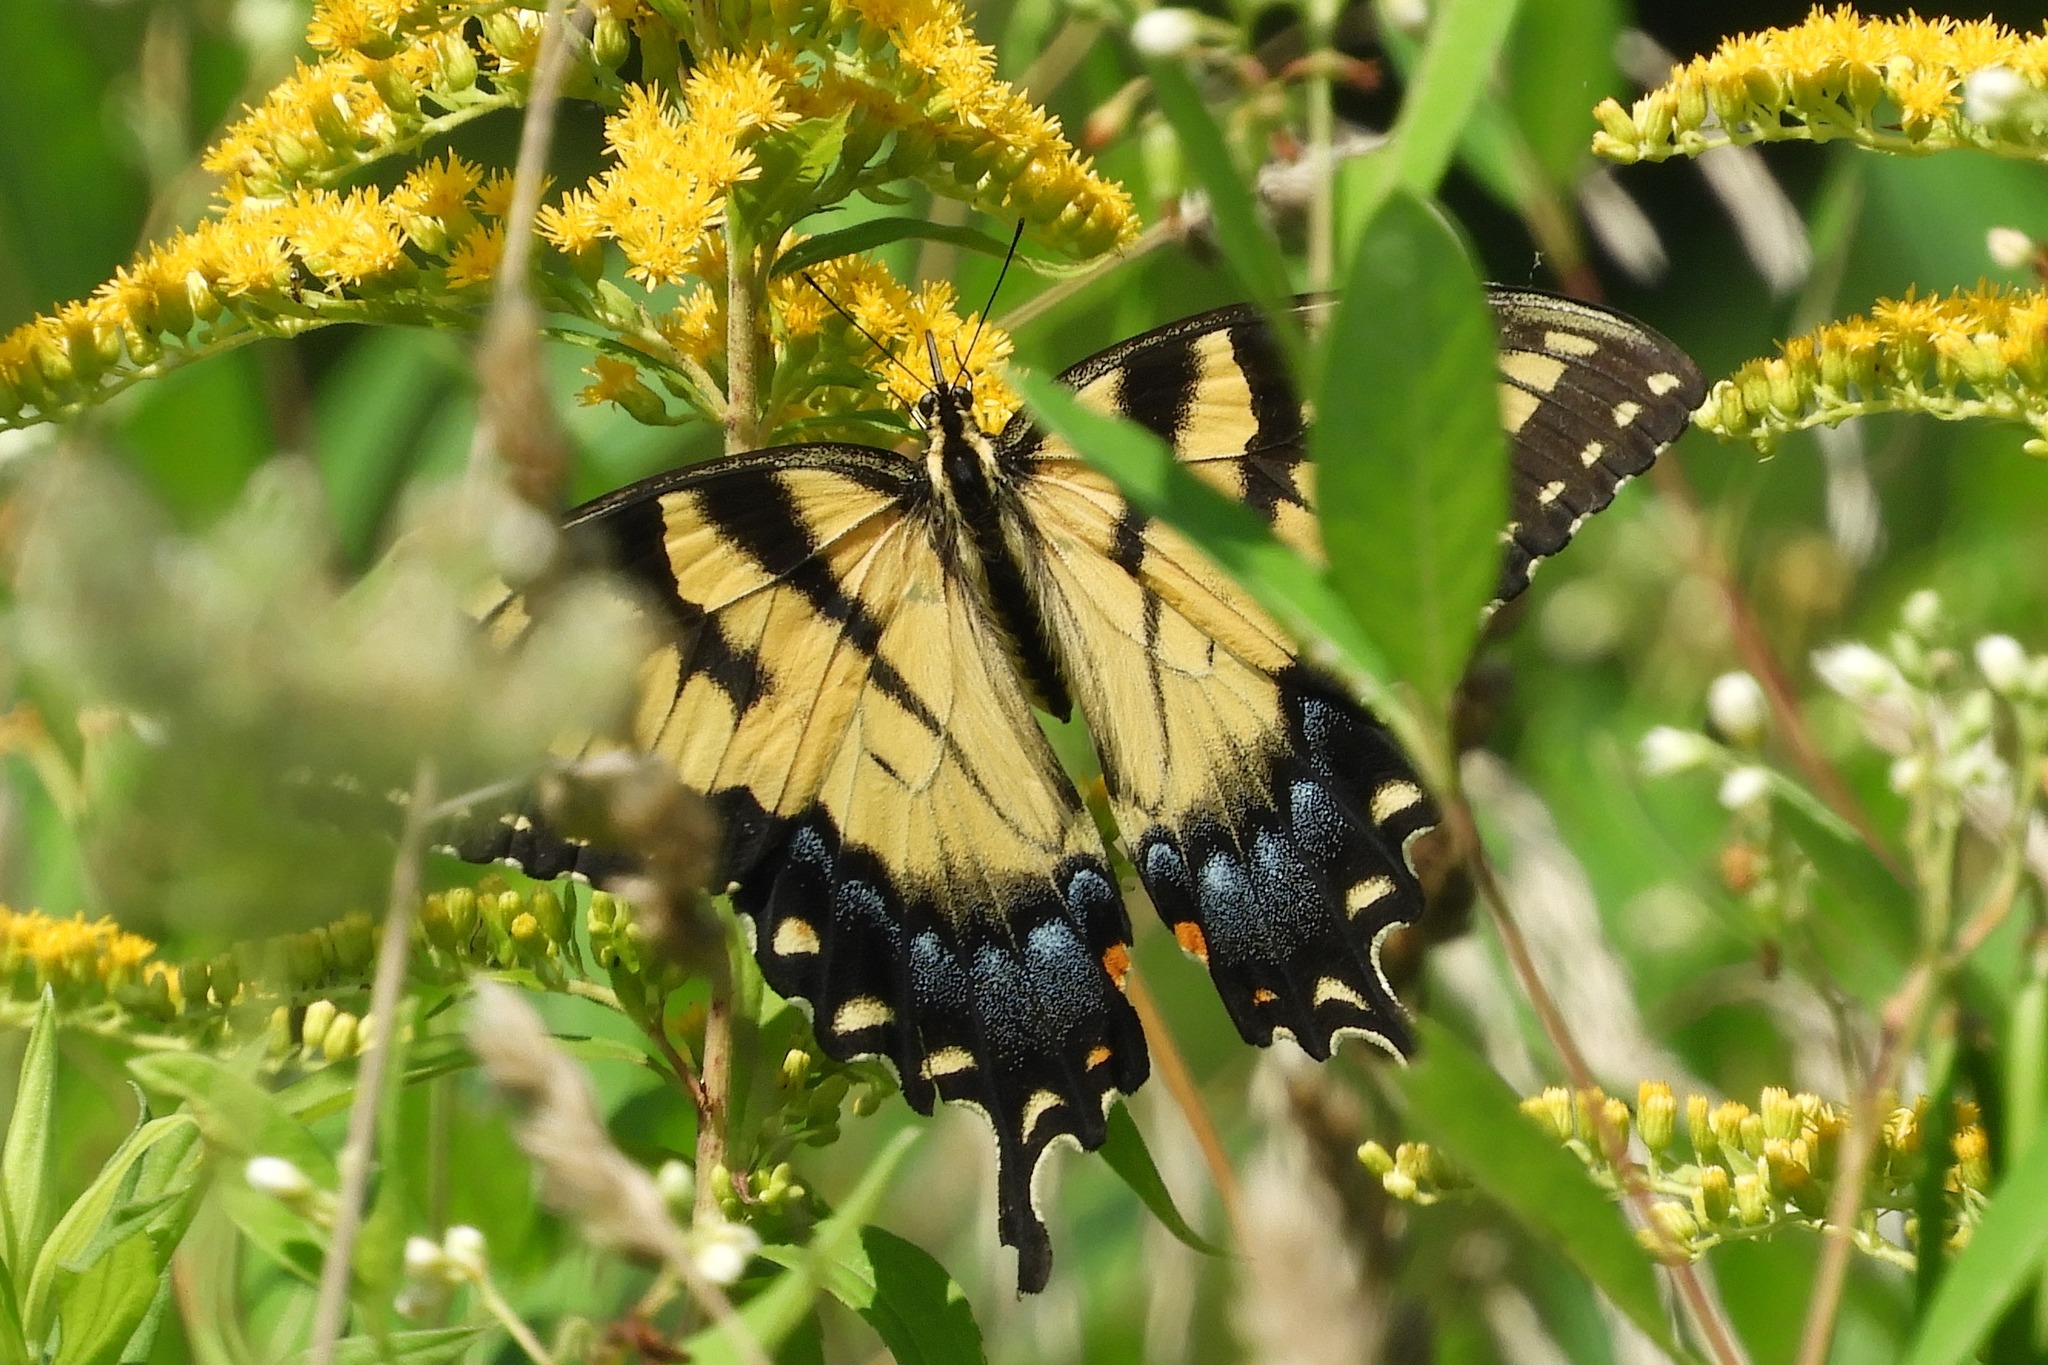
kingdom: Animalia
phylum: Arthropoda
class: Insecta
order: Lepidoptera
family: Papilionidae
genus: Papilio
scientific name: Papilio glaucus
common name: Tiger swallowtail
